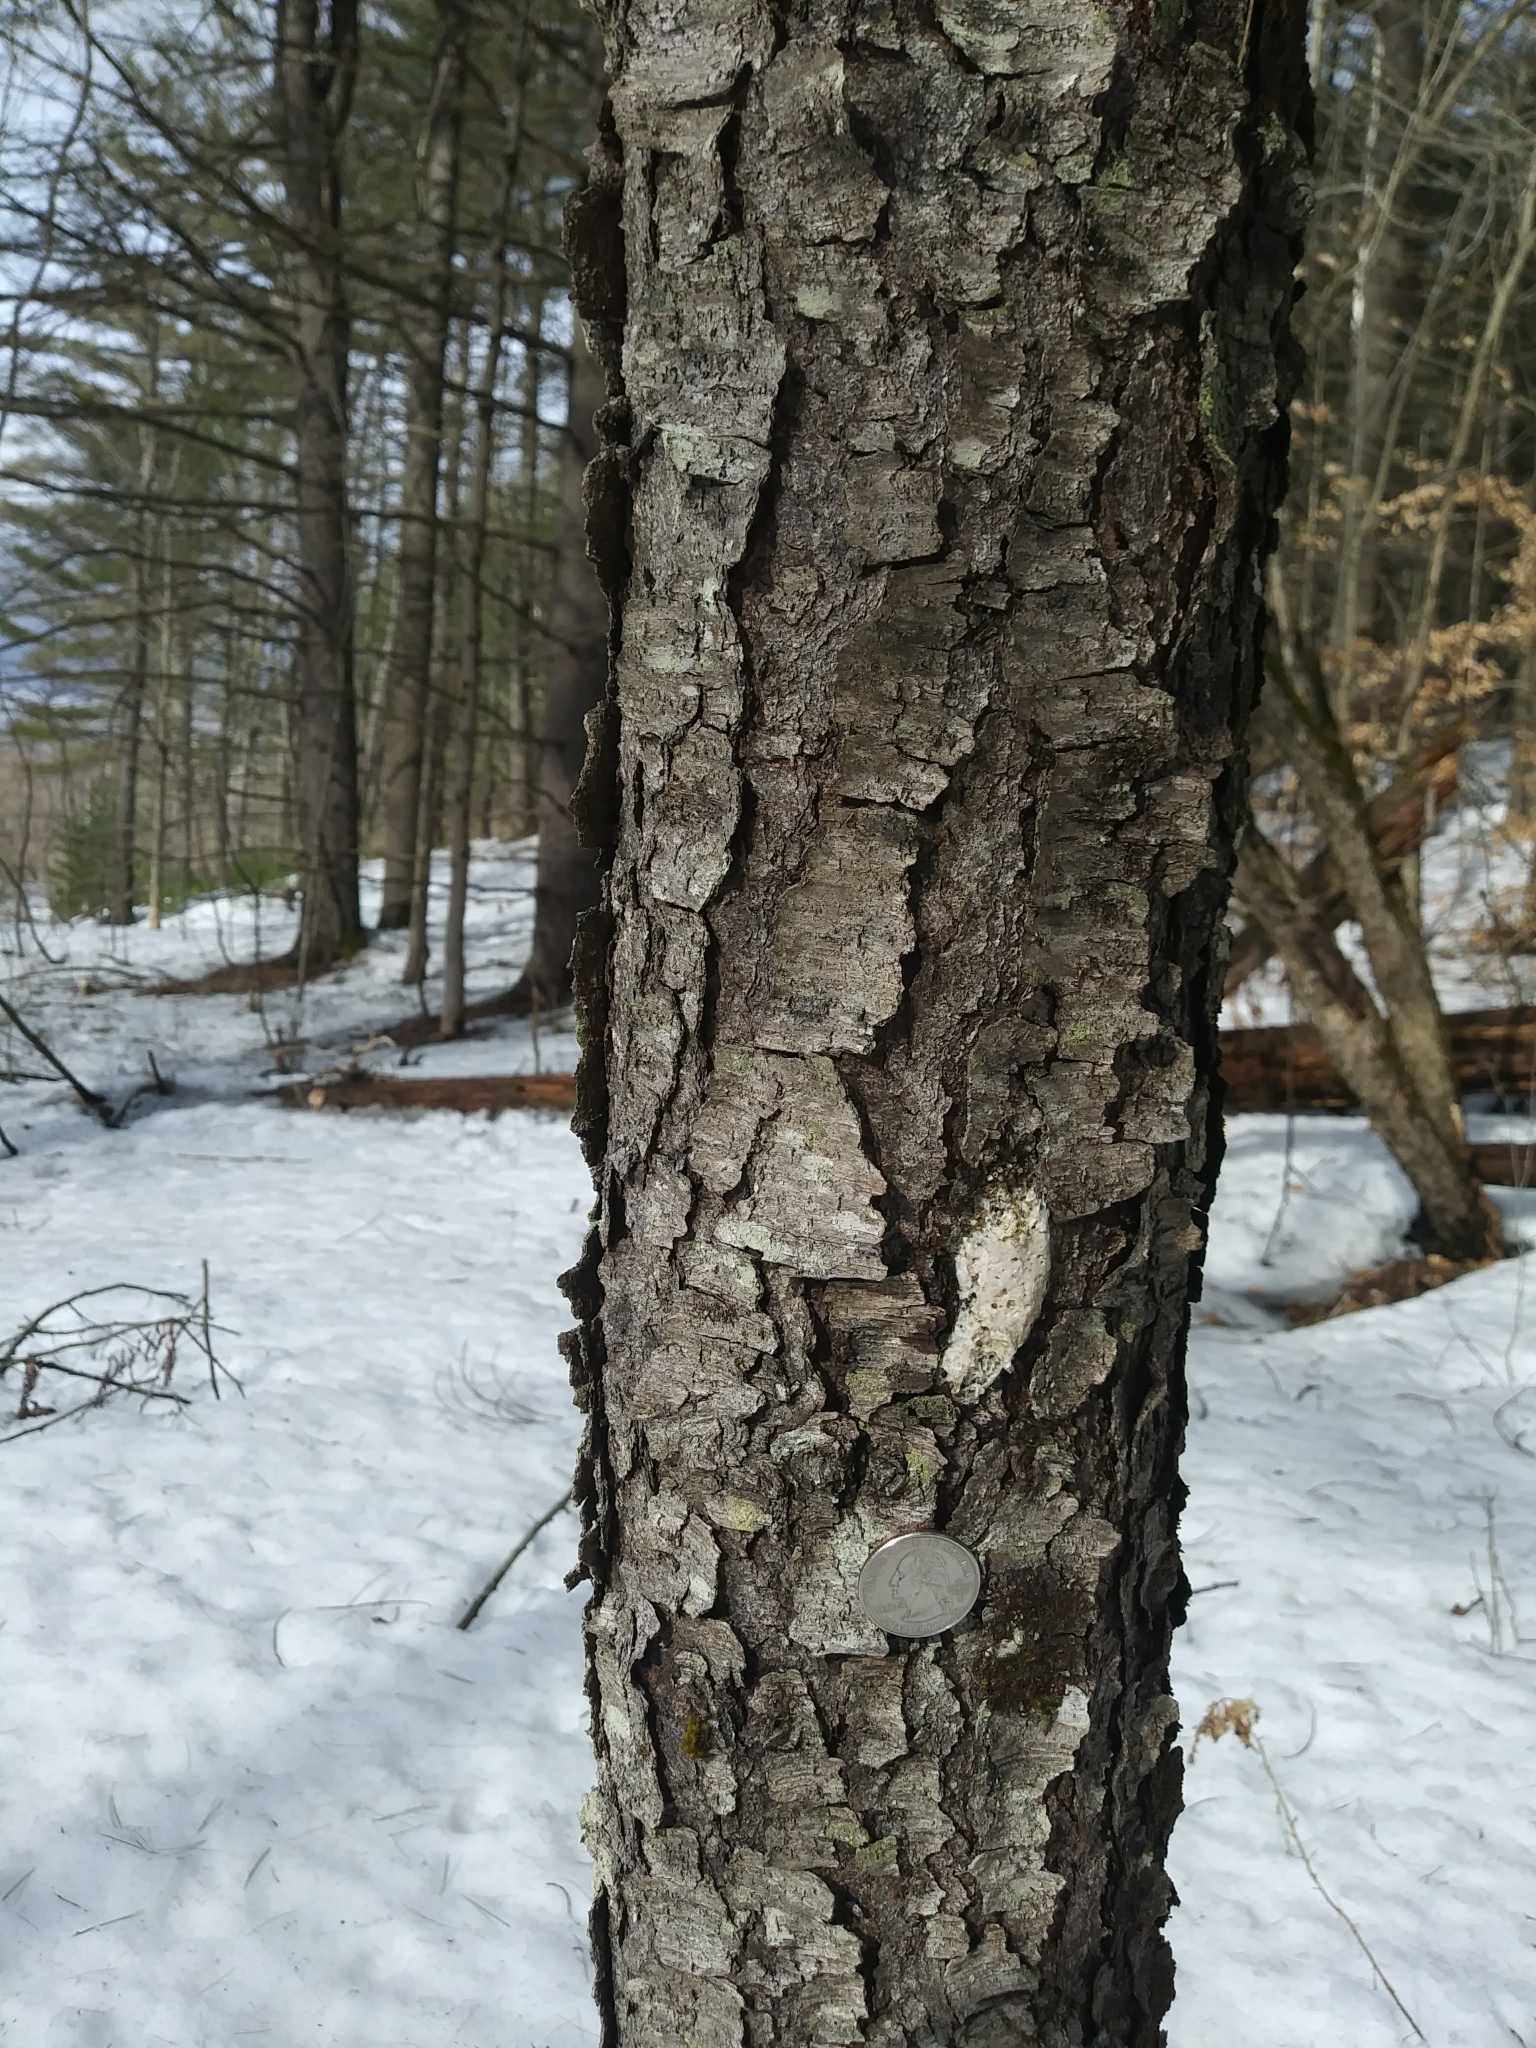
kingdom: Plantae
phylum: Tracheophyta
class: Magnoliopsida
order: Rosales
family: Rosaceae
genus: Prunus
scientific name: Prunus serotina
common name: Black cherry
